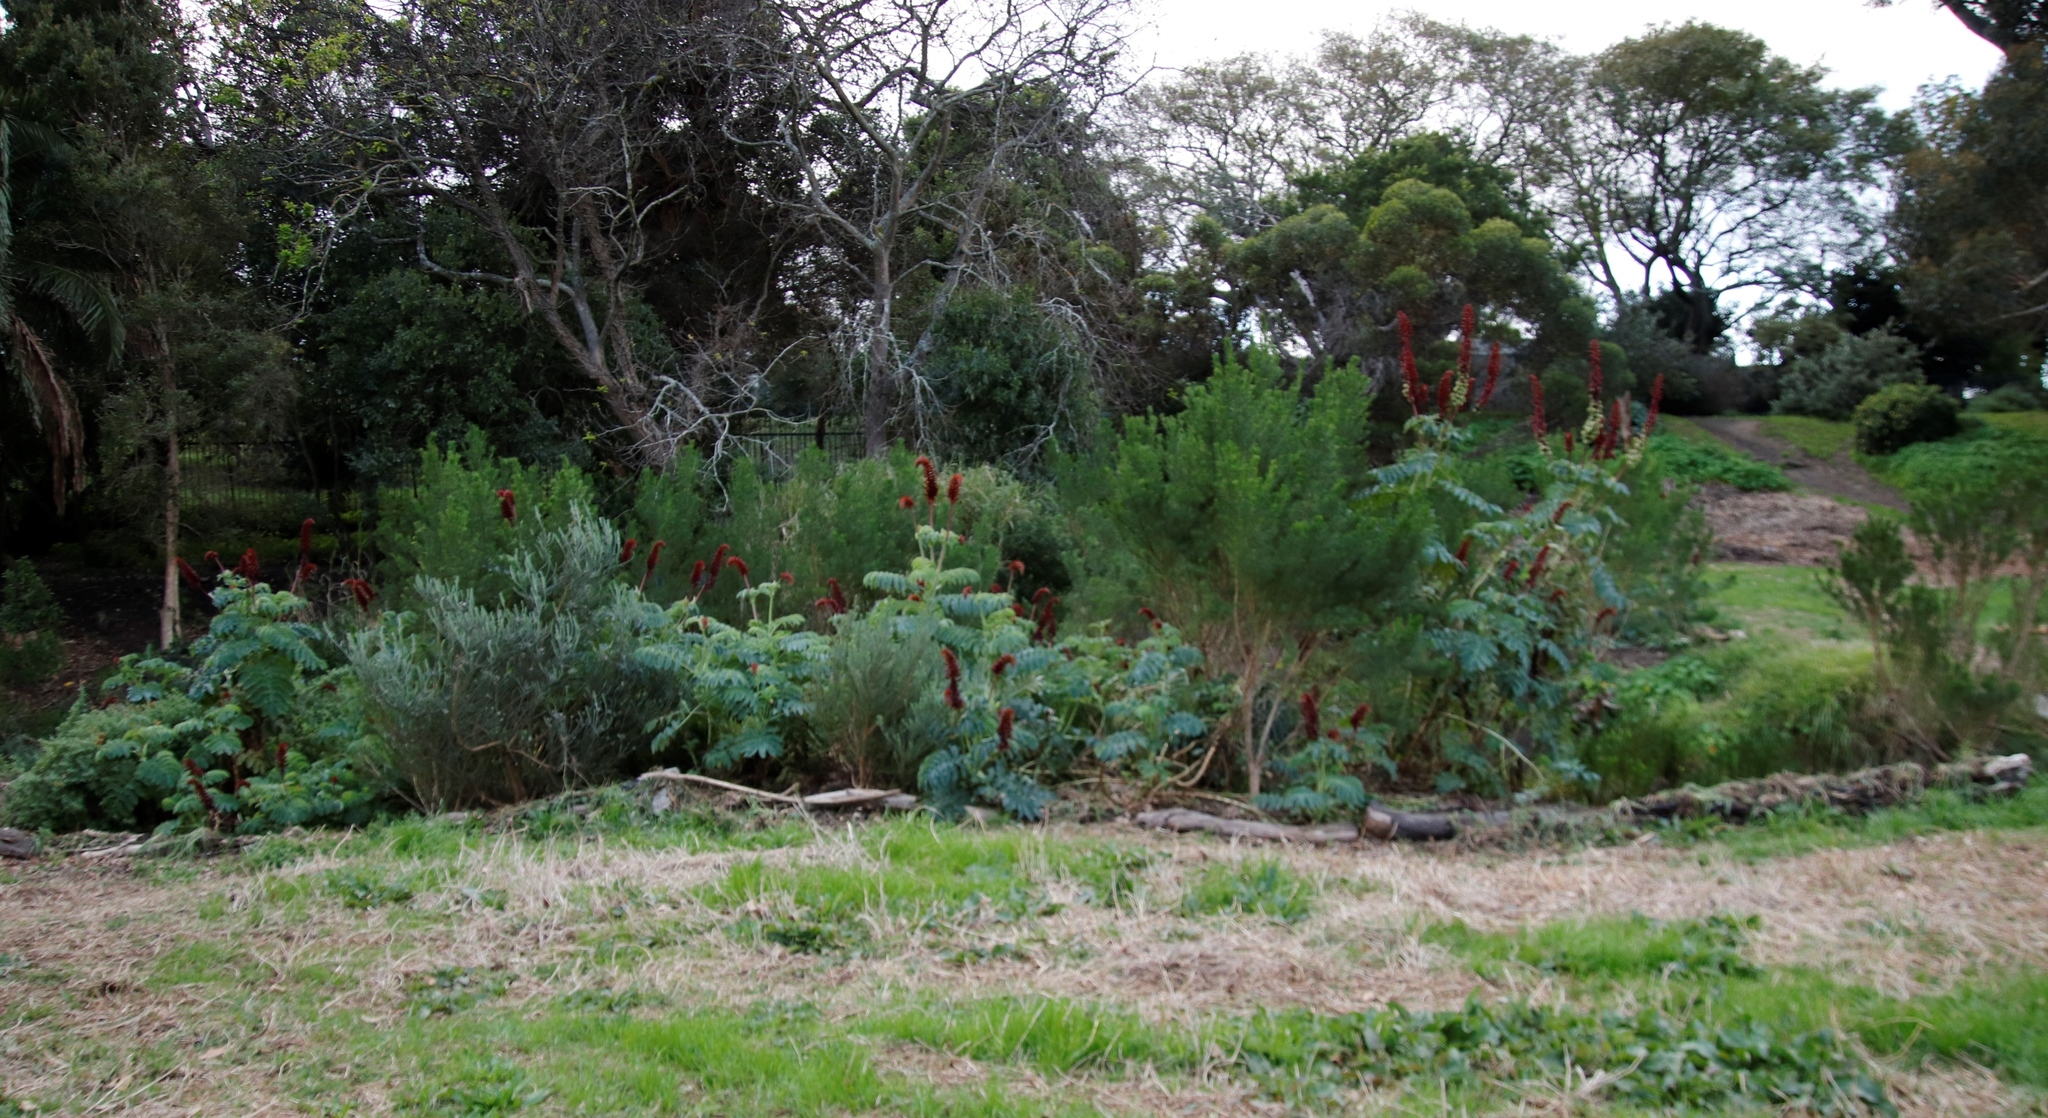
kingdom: Plantae
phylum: Tracheophyta
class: Magnoliopsida
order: Geraniales
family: Melianthaceae
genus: Melianthus
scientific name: Melianthus major
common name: Honey-flower
